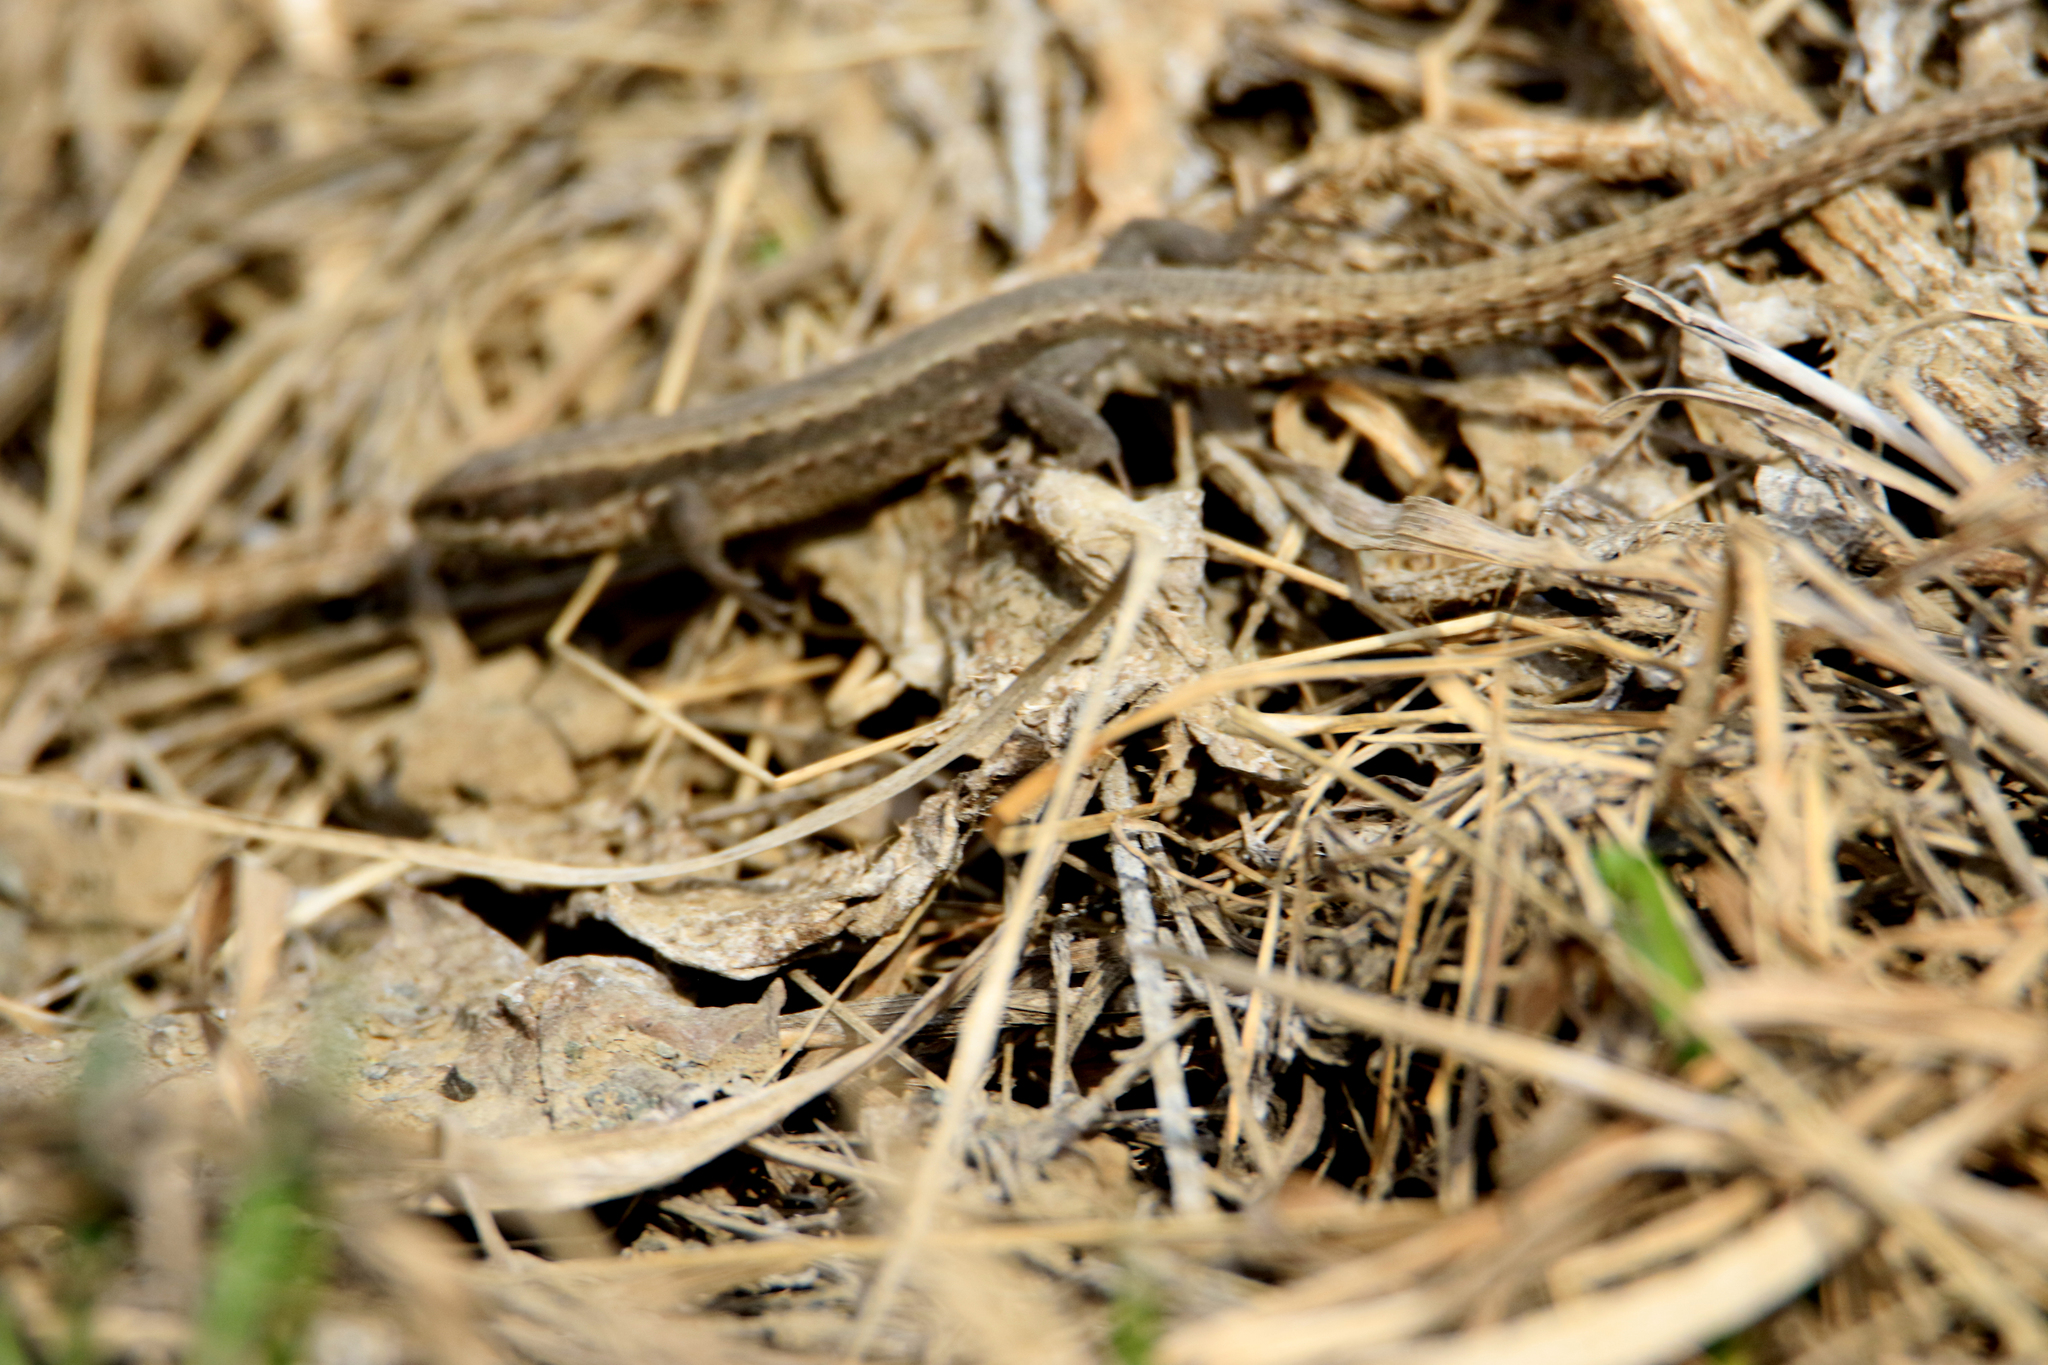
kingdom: Animalia
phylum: Chordata
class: Squamata
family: Lacertidae
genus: Zootoca
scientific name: Zootoca vivipara
